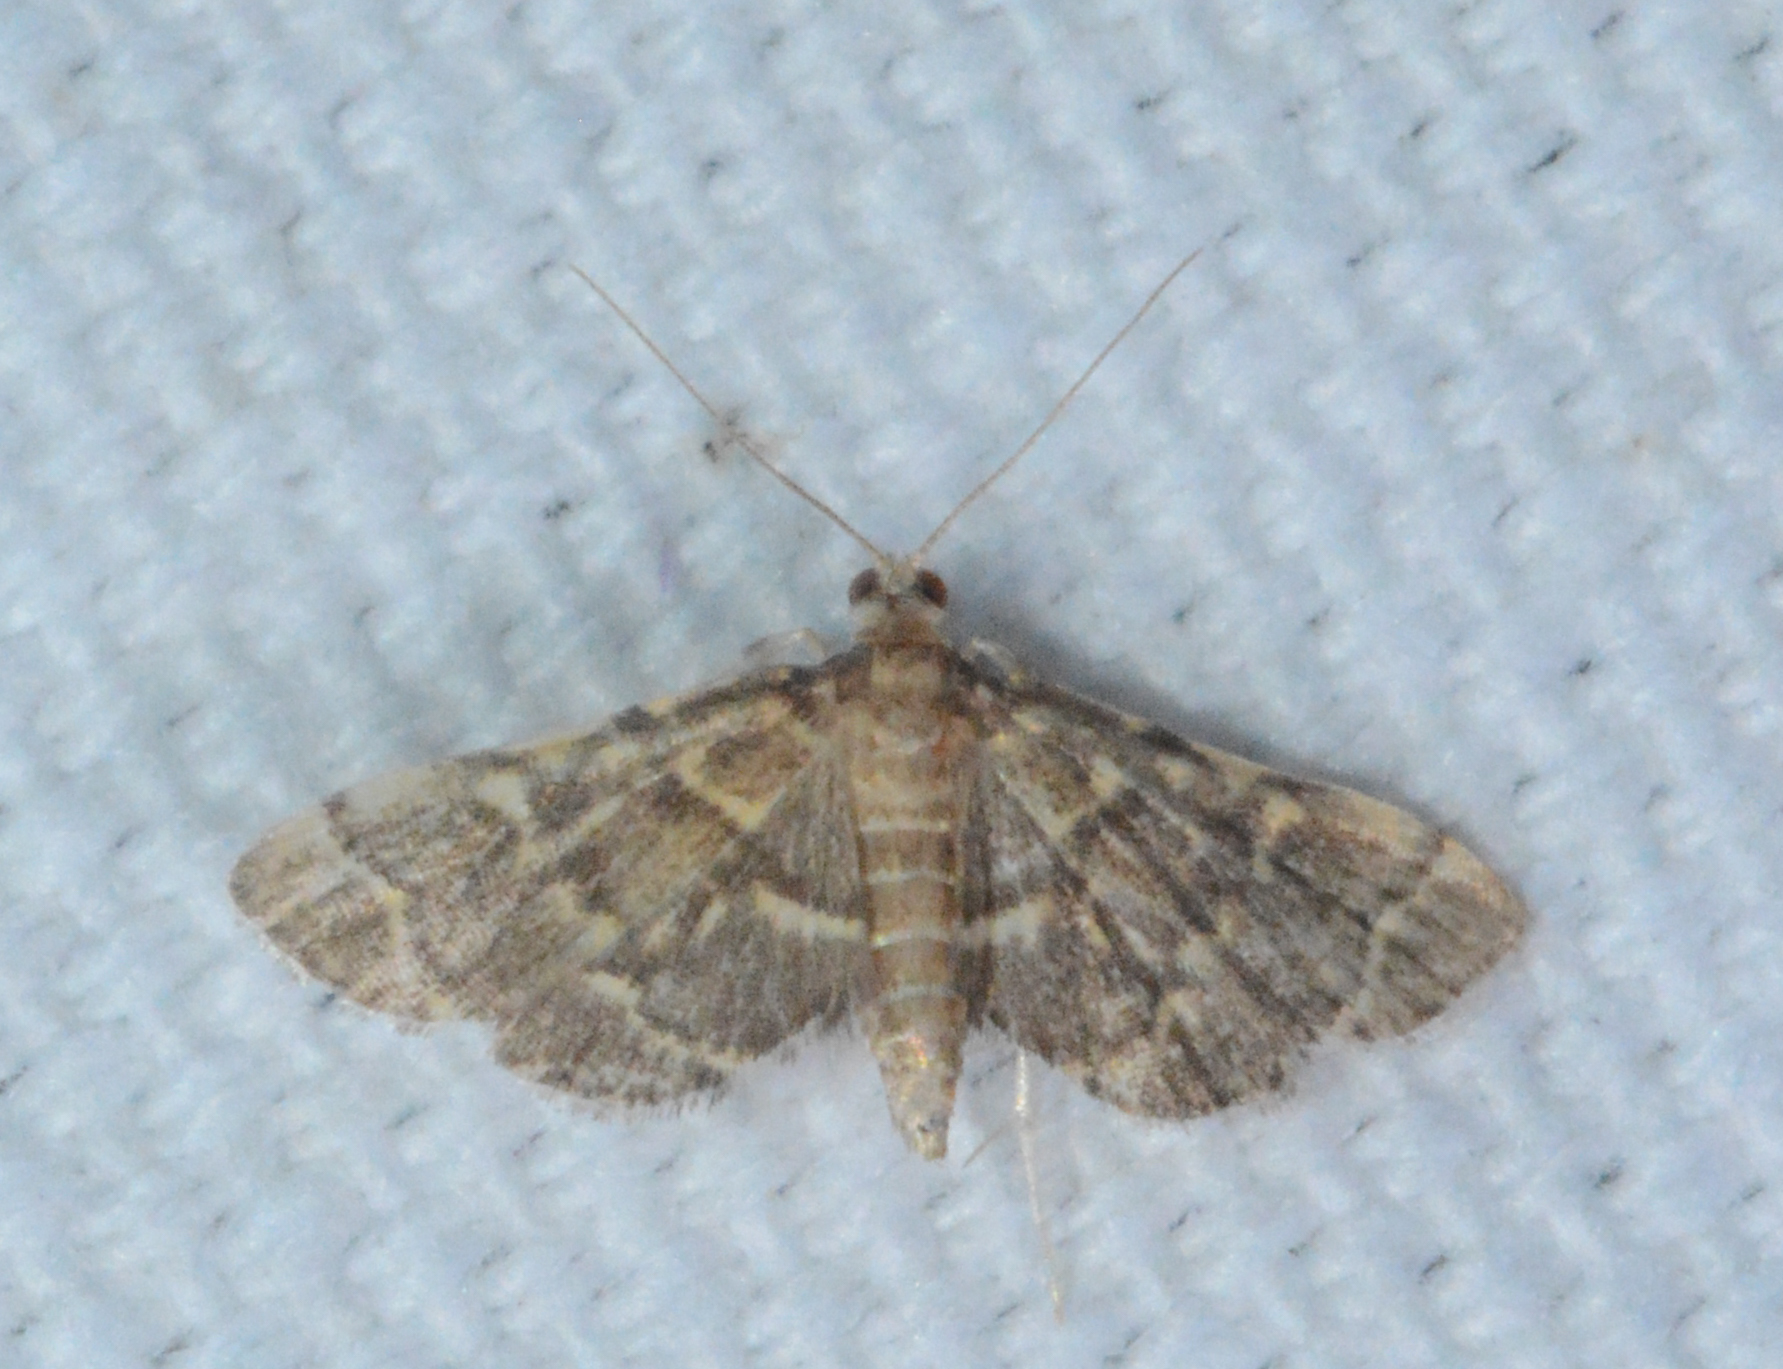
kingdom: Animalia
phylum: Arthropoda
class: Insecta
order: Lepidoptera
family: Crambidae
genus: Anageshna
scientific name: Anageshna primordialis
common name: Yellow-spotted webworm moth
